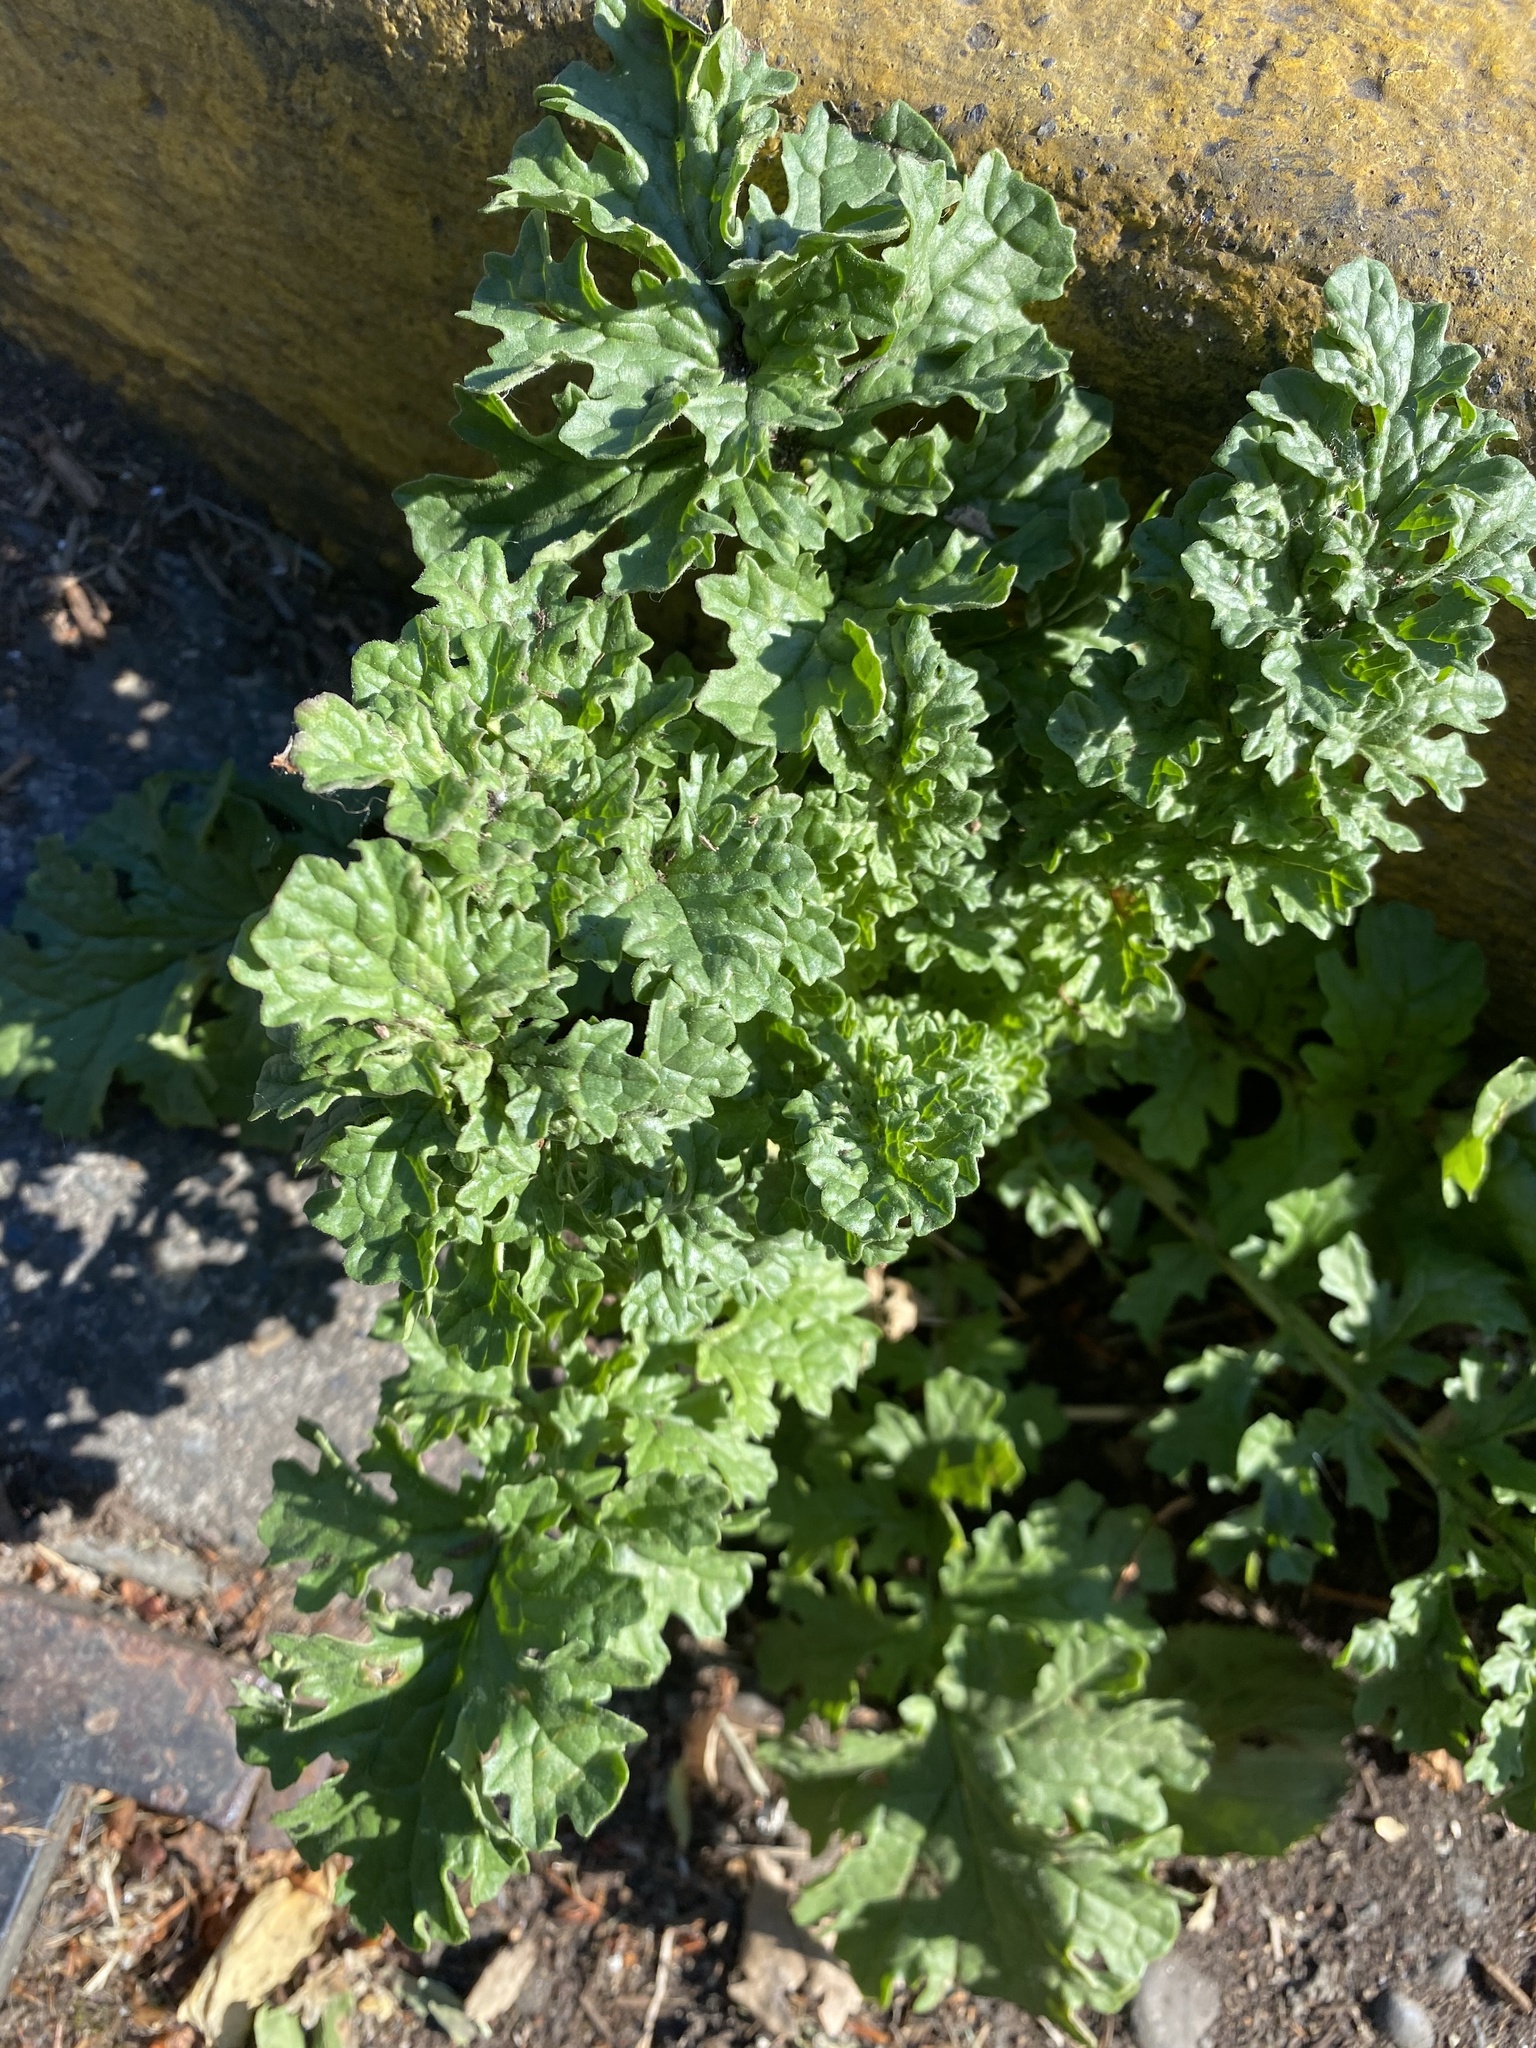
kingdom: Plantae
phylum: Tracheophyta
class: Magnoliopsida
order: Asterales
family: Asteraceae
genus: Jacobaea
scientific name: Jacobaea vulgaris
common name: Stinking willie
